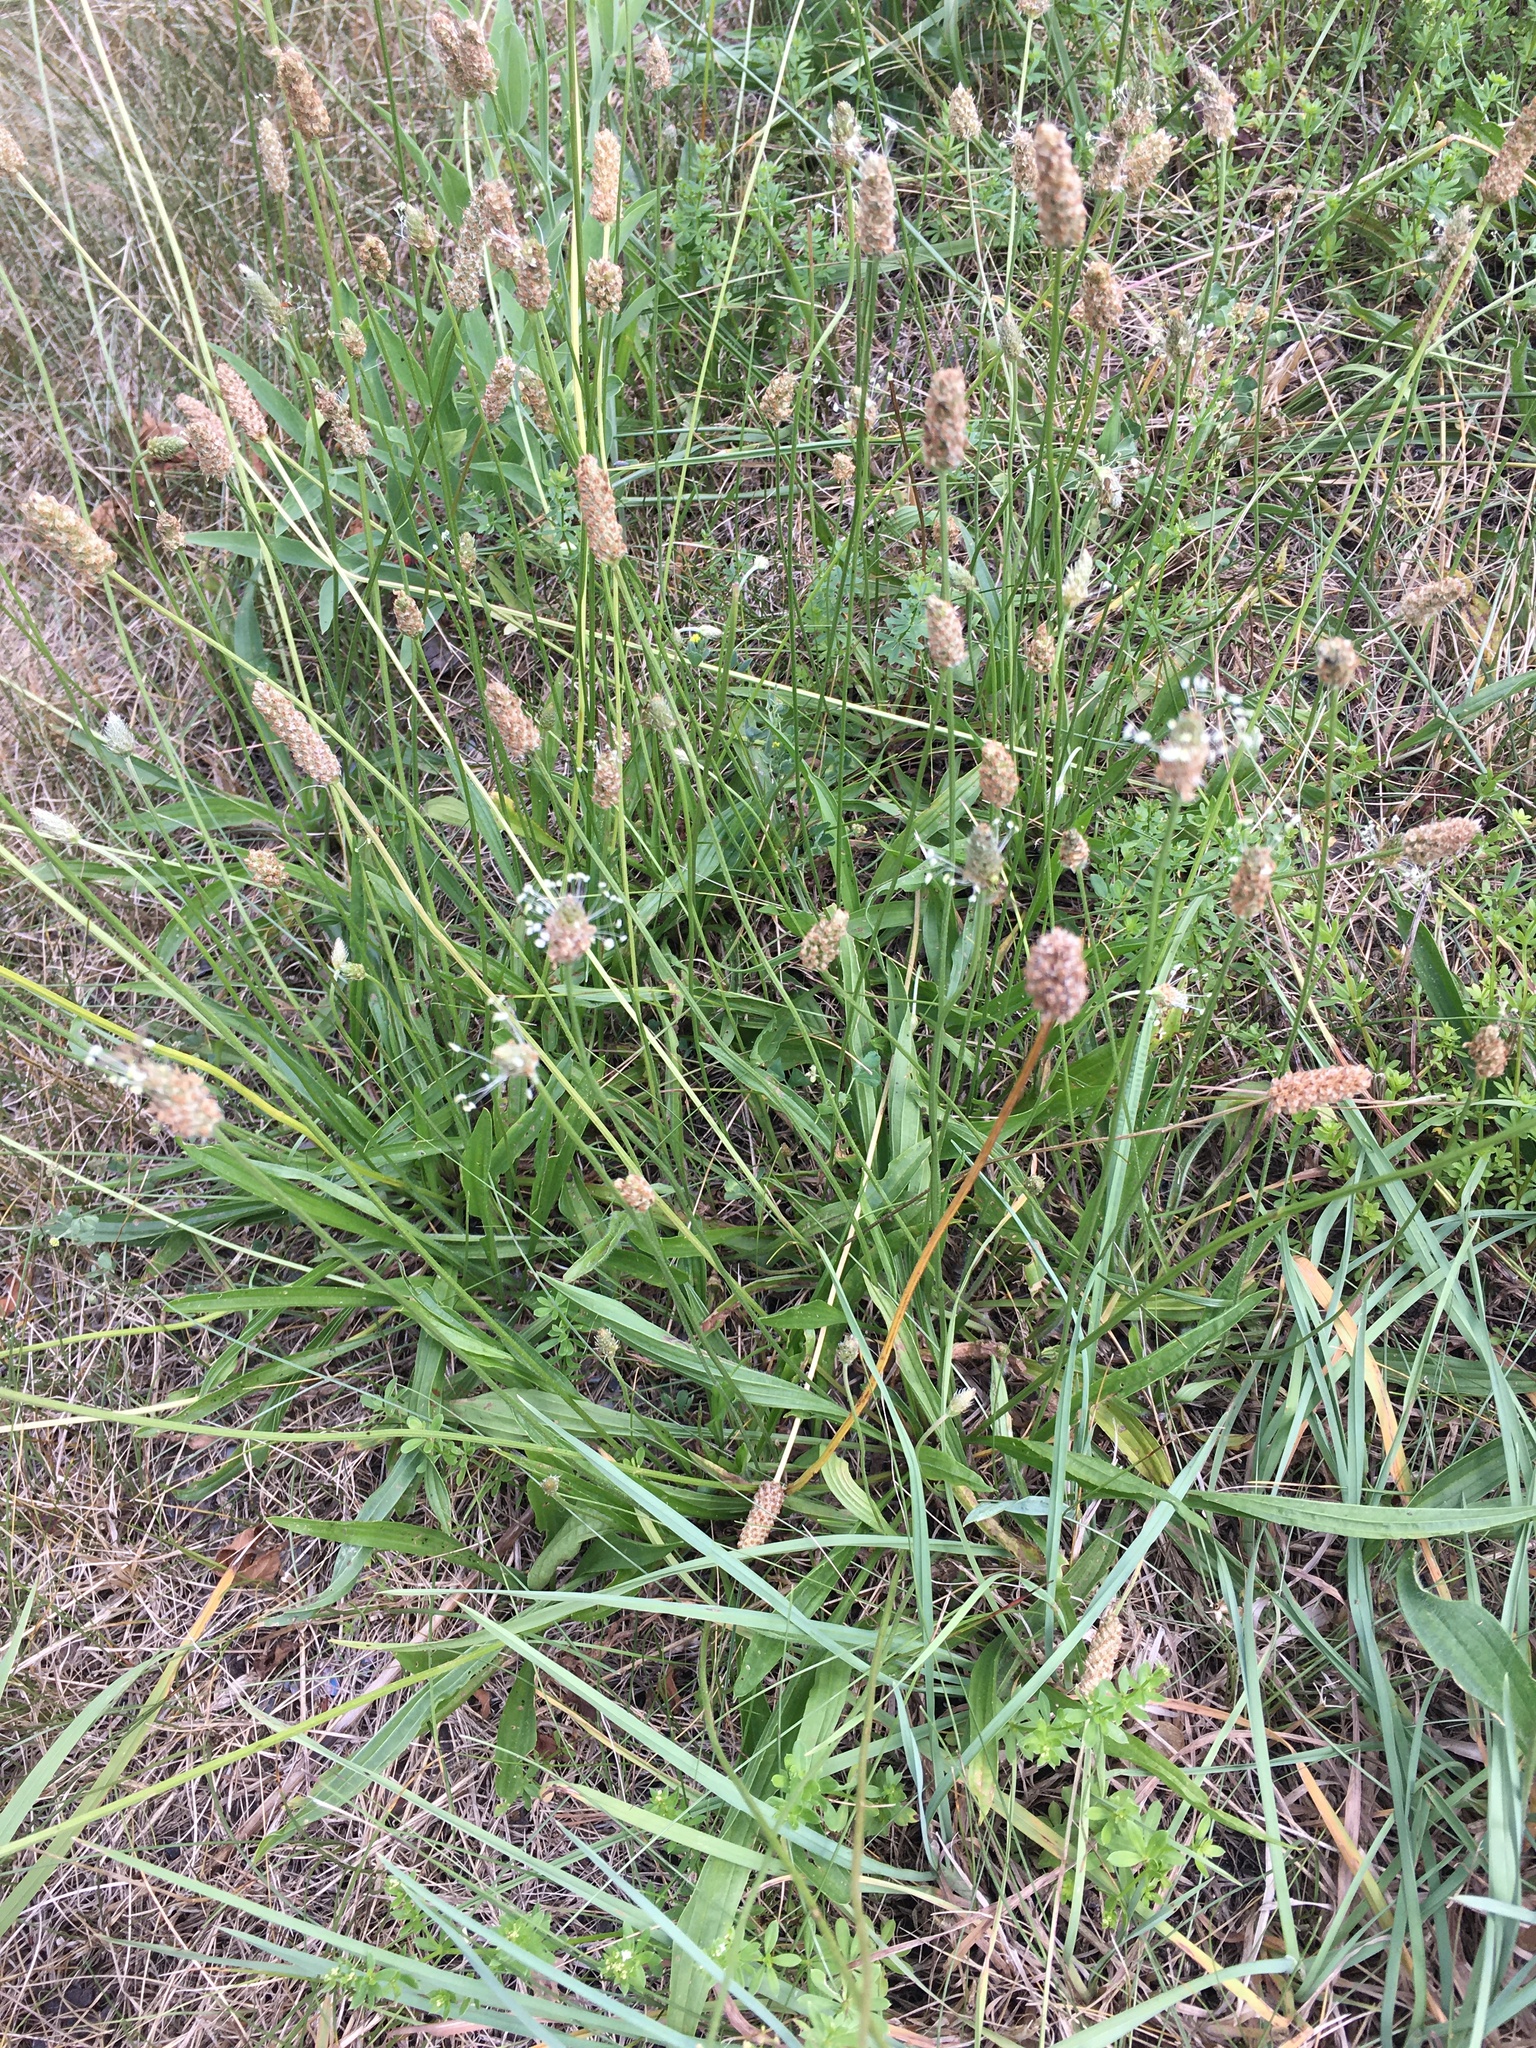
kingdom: Plantae
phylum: Tracheophyta
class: Magnoliopsida
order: Lamiales
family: Plantaginaceae
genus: Plantago
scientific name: Plantago lanceolata
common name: Ribwort plantain
